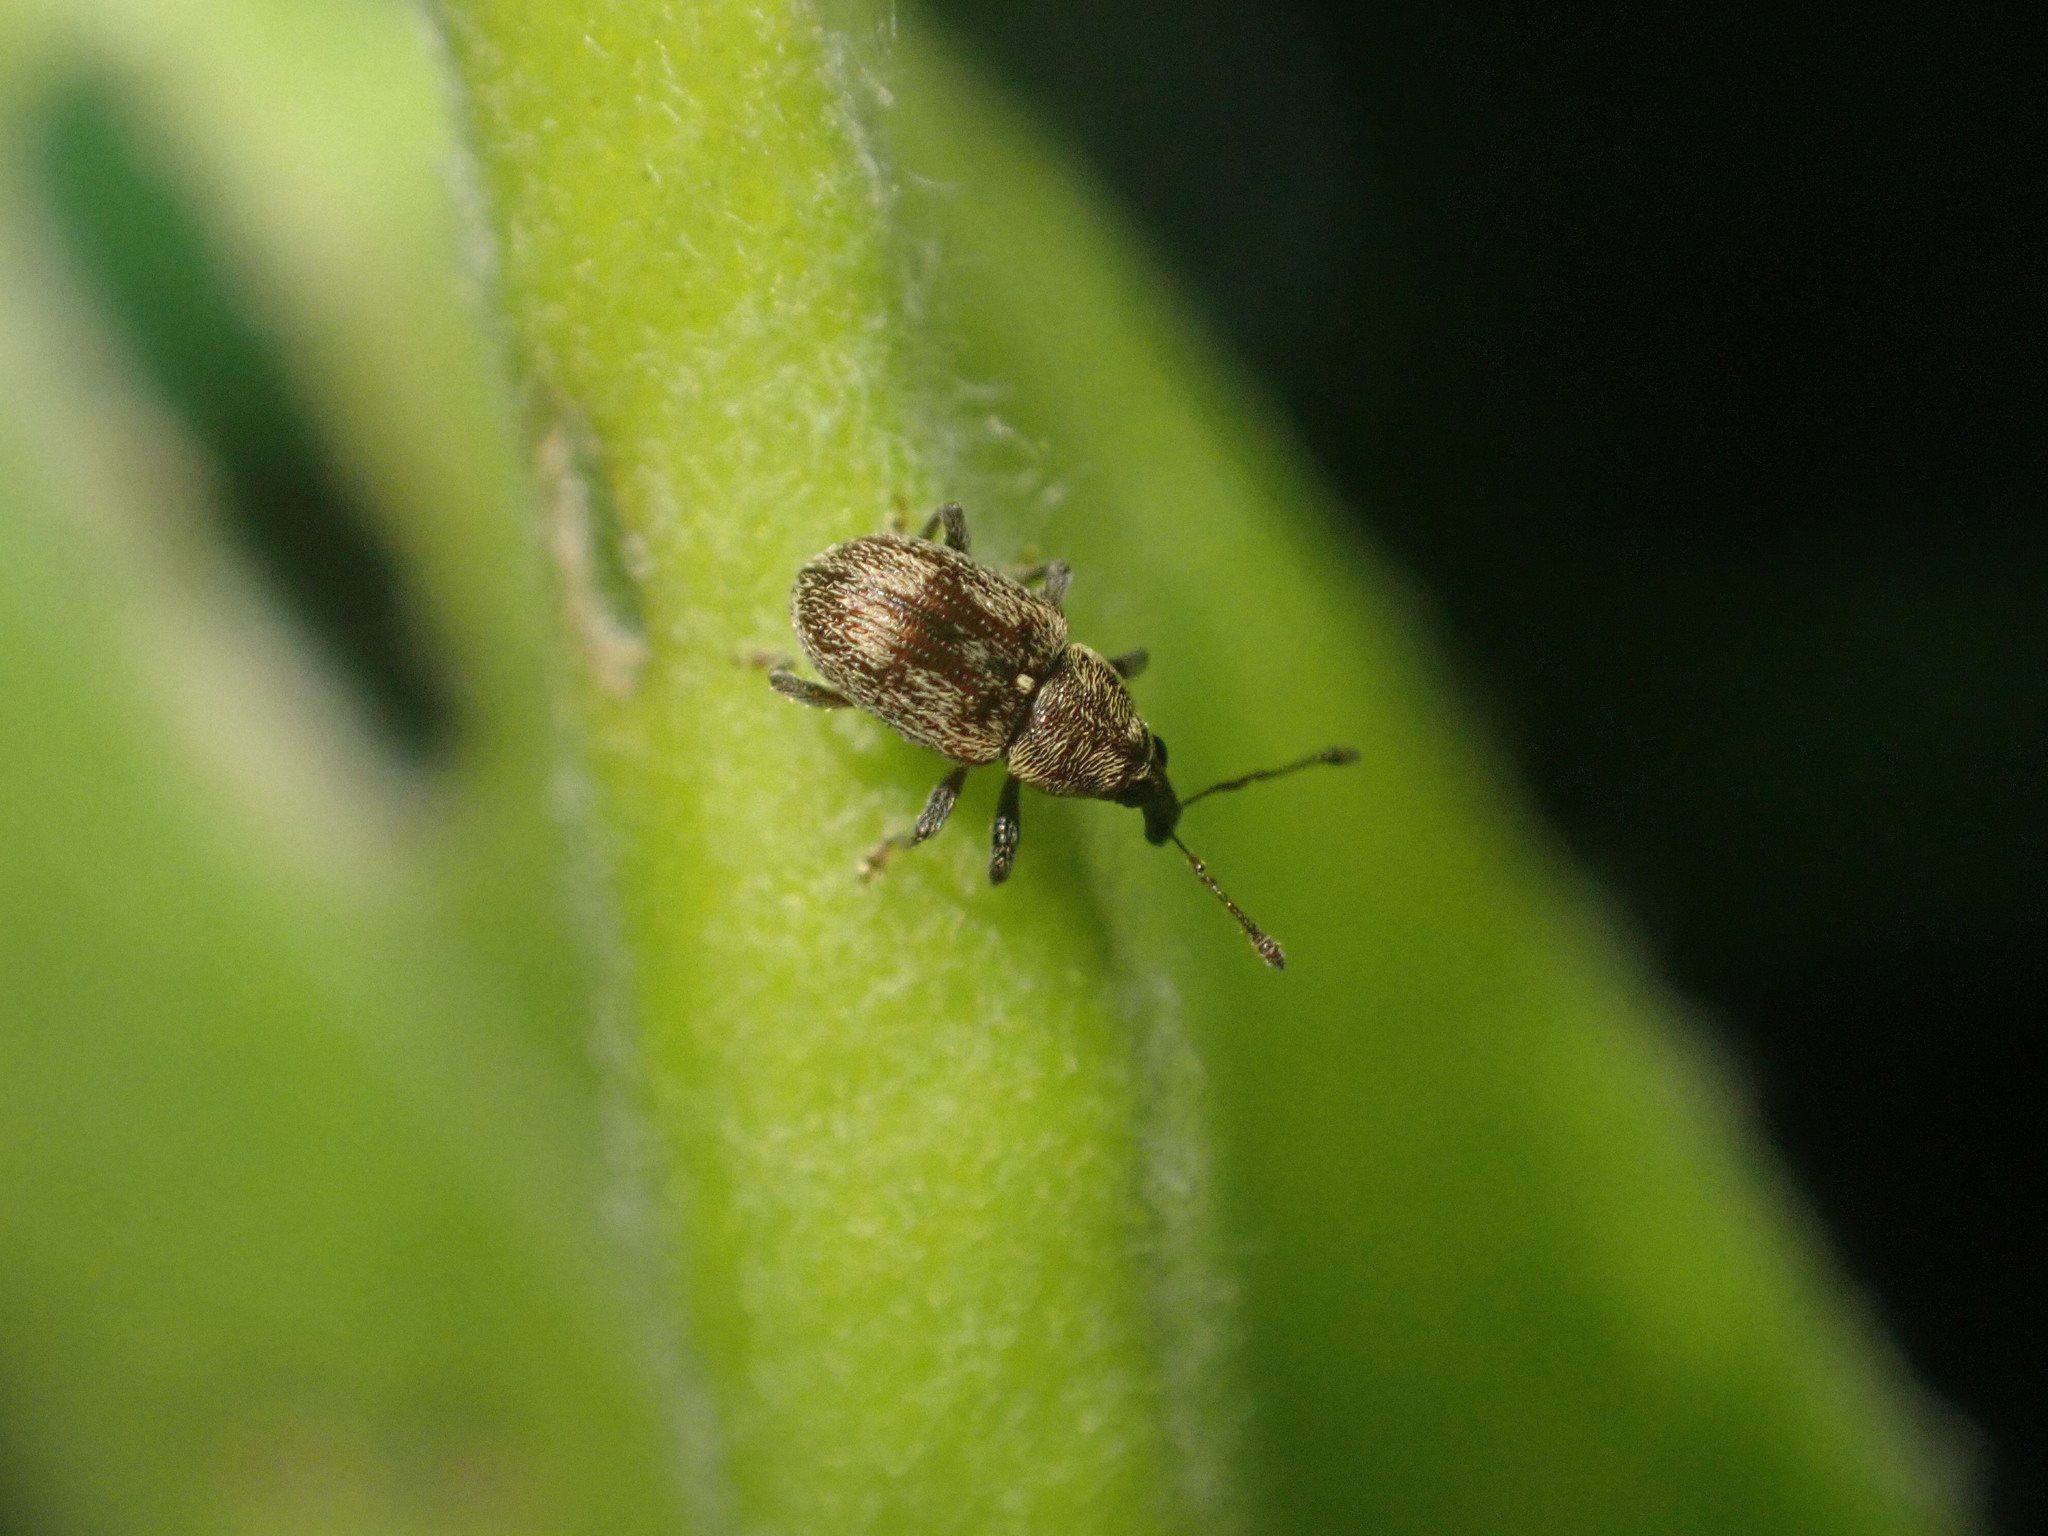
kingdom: Animalia
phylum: Arthropoda
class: Insecta
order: Coleoptera
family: Curculionidae
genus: Neomycta
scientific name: Neomycta rubida
